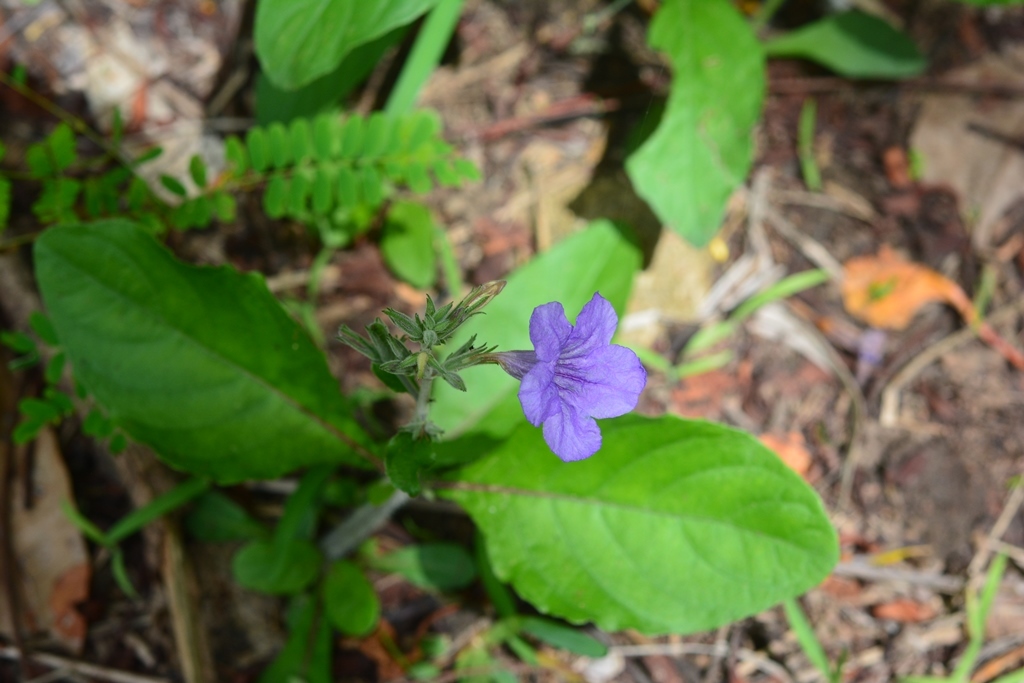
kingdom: Plantae
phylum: Tracheophyta
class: Magnoliopsida
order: Lamiales
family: Acanthaceae
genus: Ruellia
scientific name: Ruellia ciliatiflora
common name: Hairyflower wild petunia
